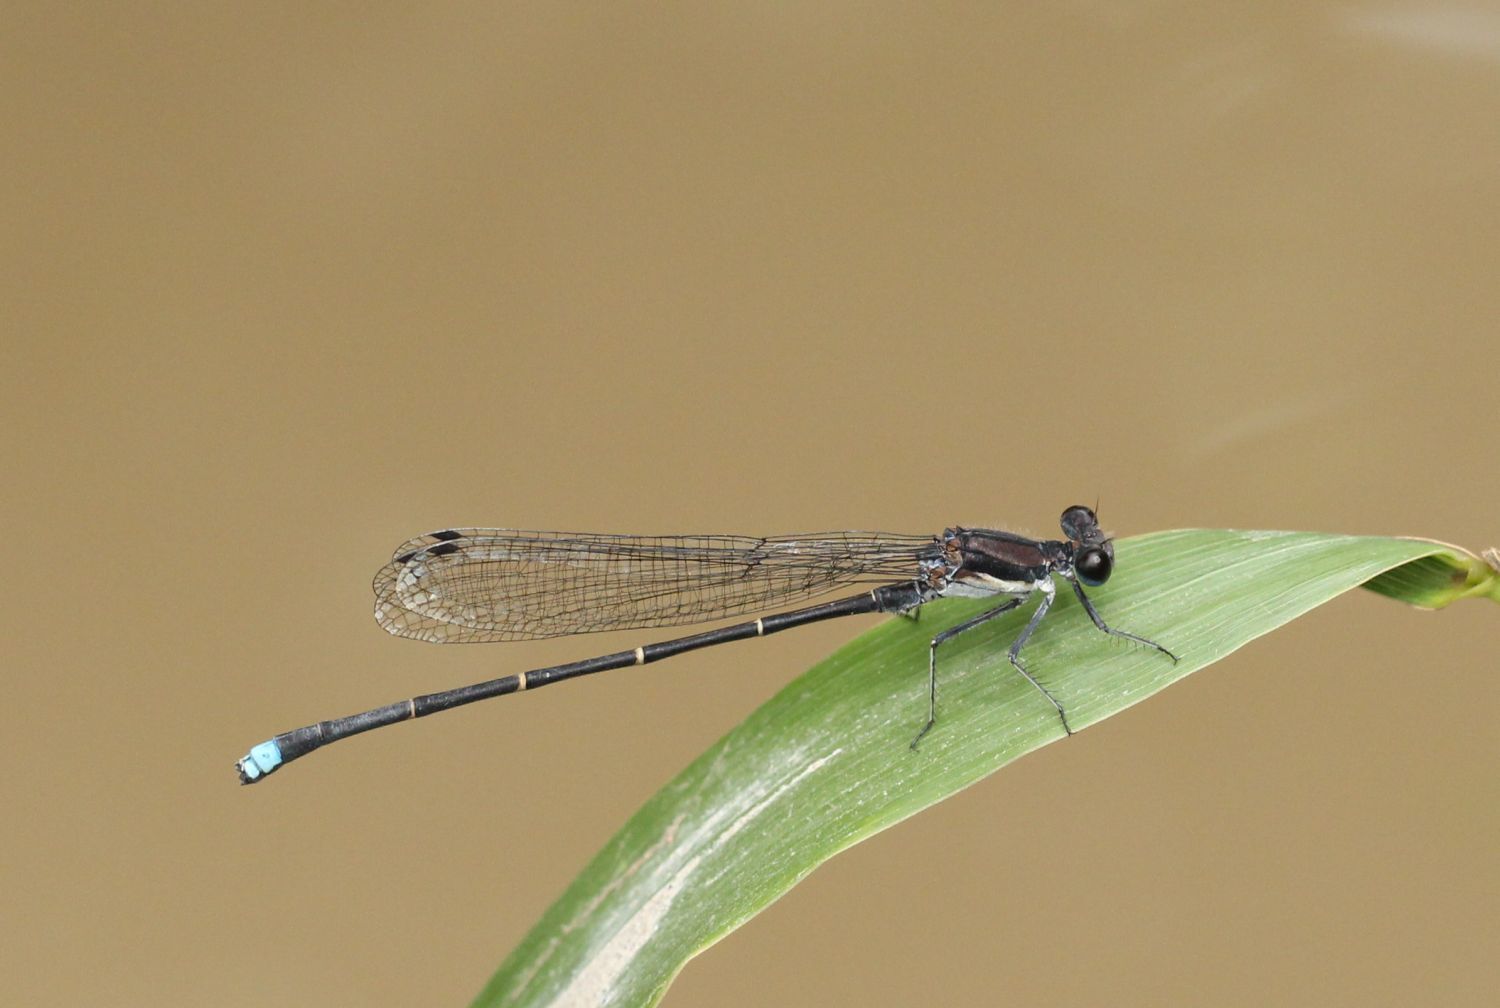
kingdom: Animalia
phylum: Arthropoda
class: Insecta
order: Odonata
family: Coenagrionidae
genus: Argia
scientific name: Argia tibialis
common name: Blue-tipped dancer
